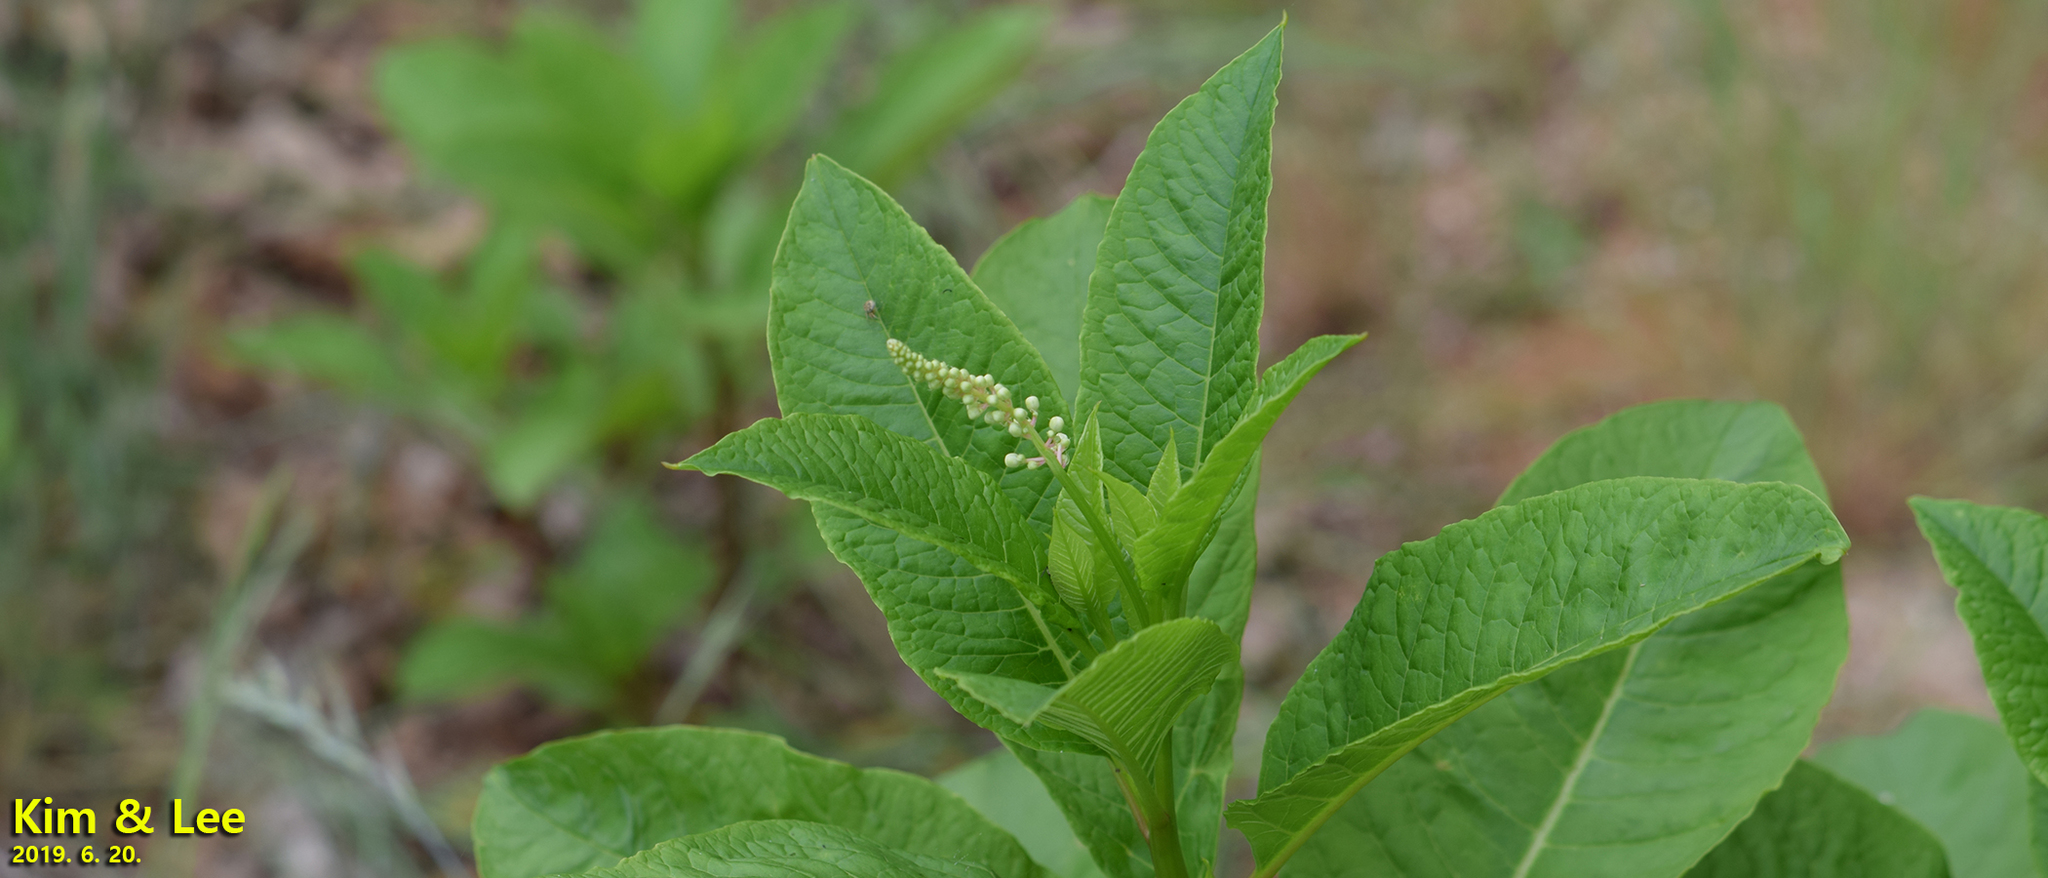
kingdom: Plantae
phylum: Tracheophyta
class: Magnoliopsida
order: Caryophyllales
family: Phytolaccaceae
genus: Phytolacca
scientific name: Phytolacca americana
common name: American pokeweed
